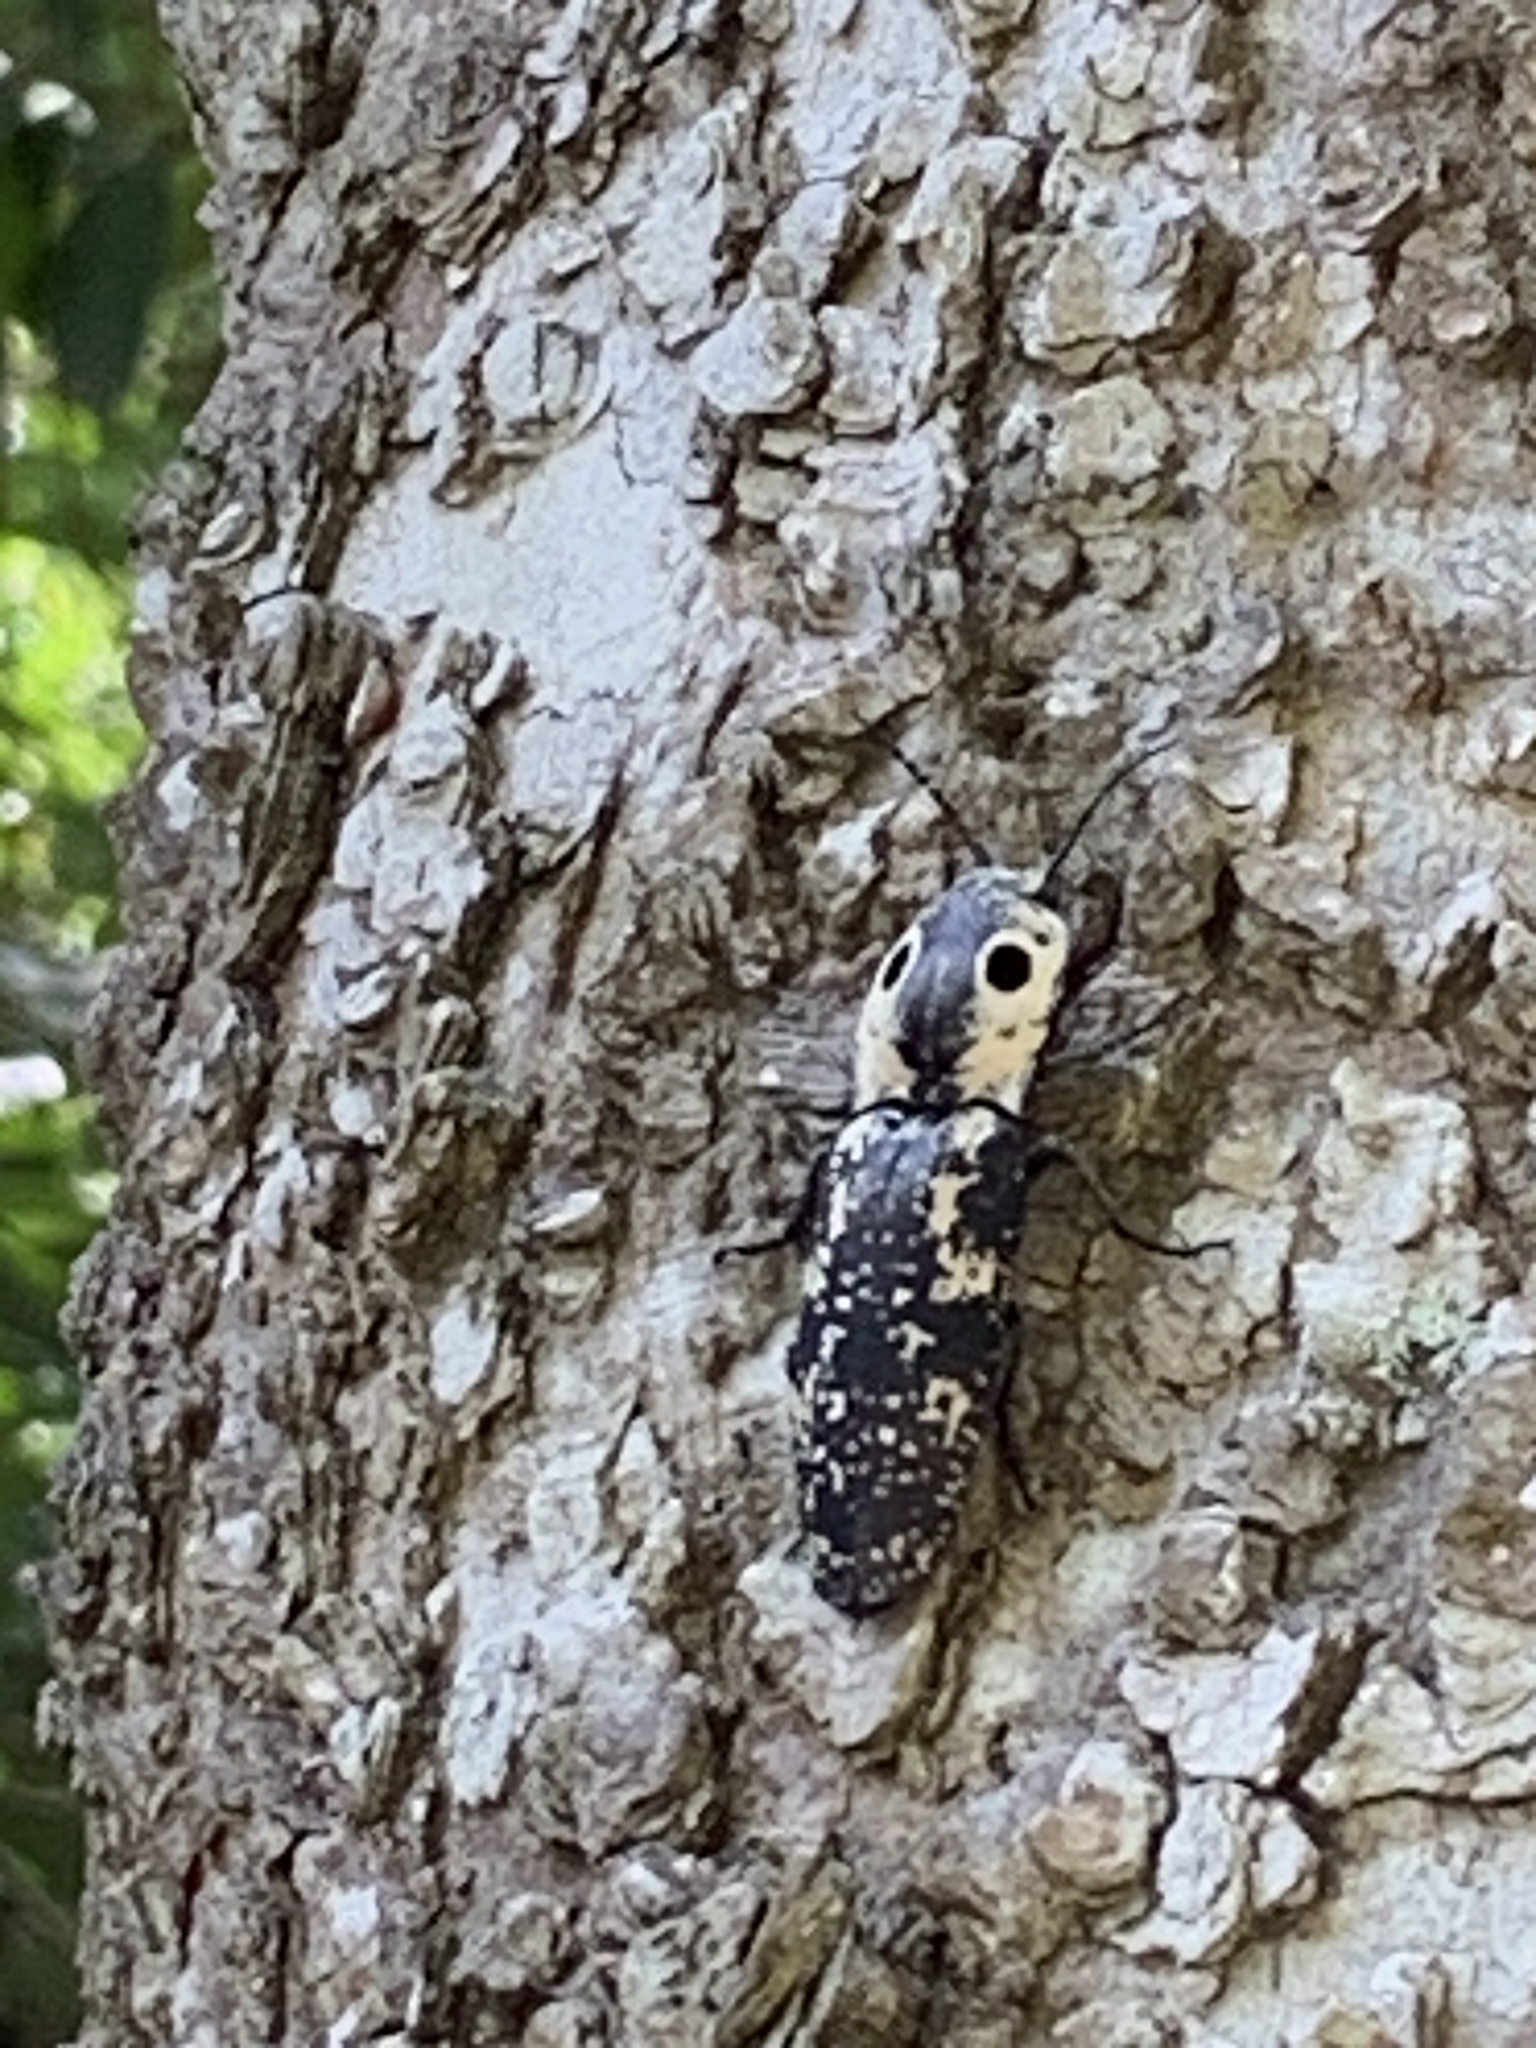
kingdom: Animalia
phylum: Arthropoda
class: Insecta
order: Coleoptera
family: Elateridae
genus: Alaus
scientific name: Alaus
